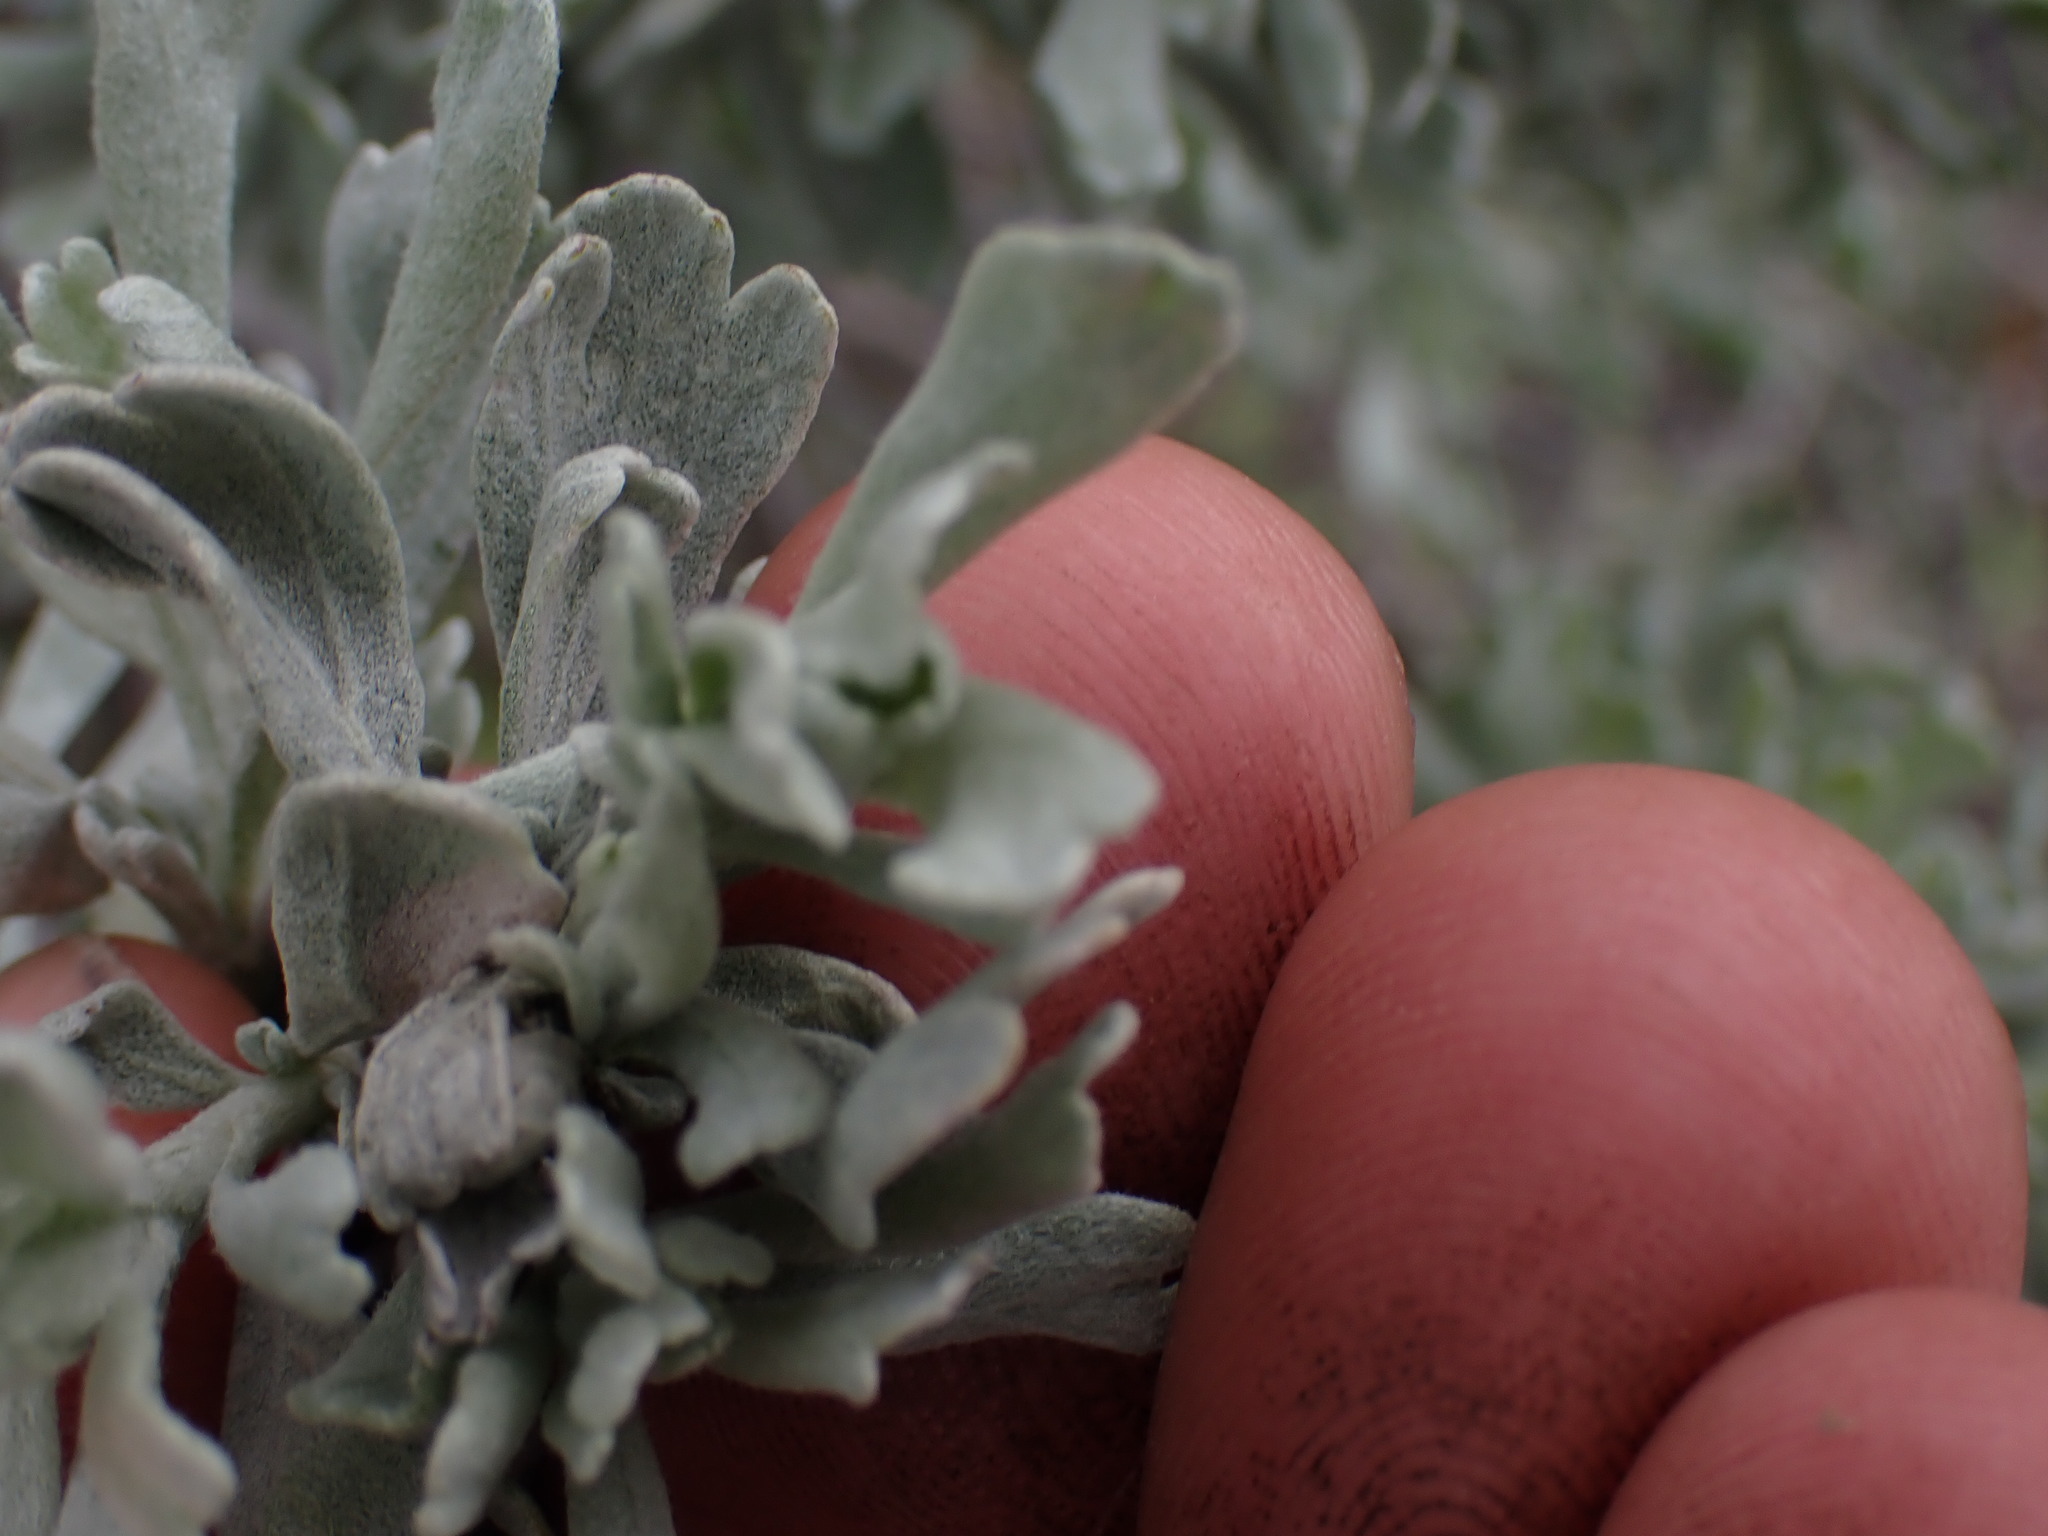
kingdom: Plantae
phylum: Tracheophyta
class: Magnoliopsida
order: Asterales
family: Asteraceae
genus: Artemisia
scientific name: Artemisia tridentata
